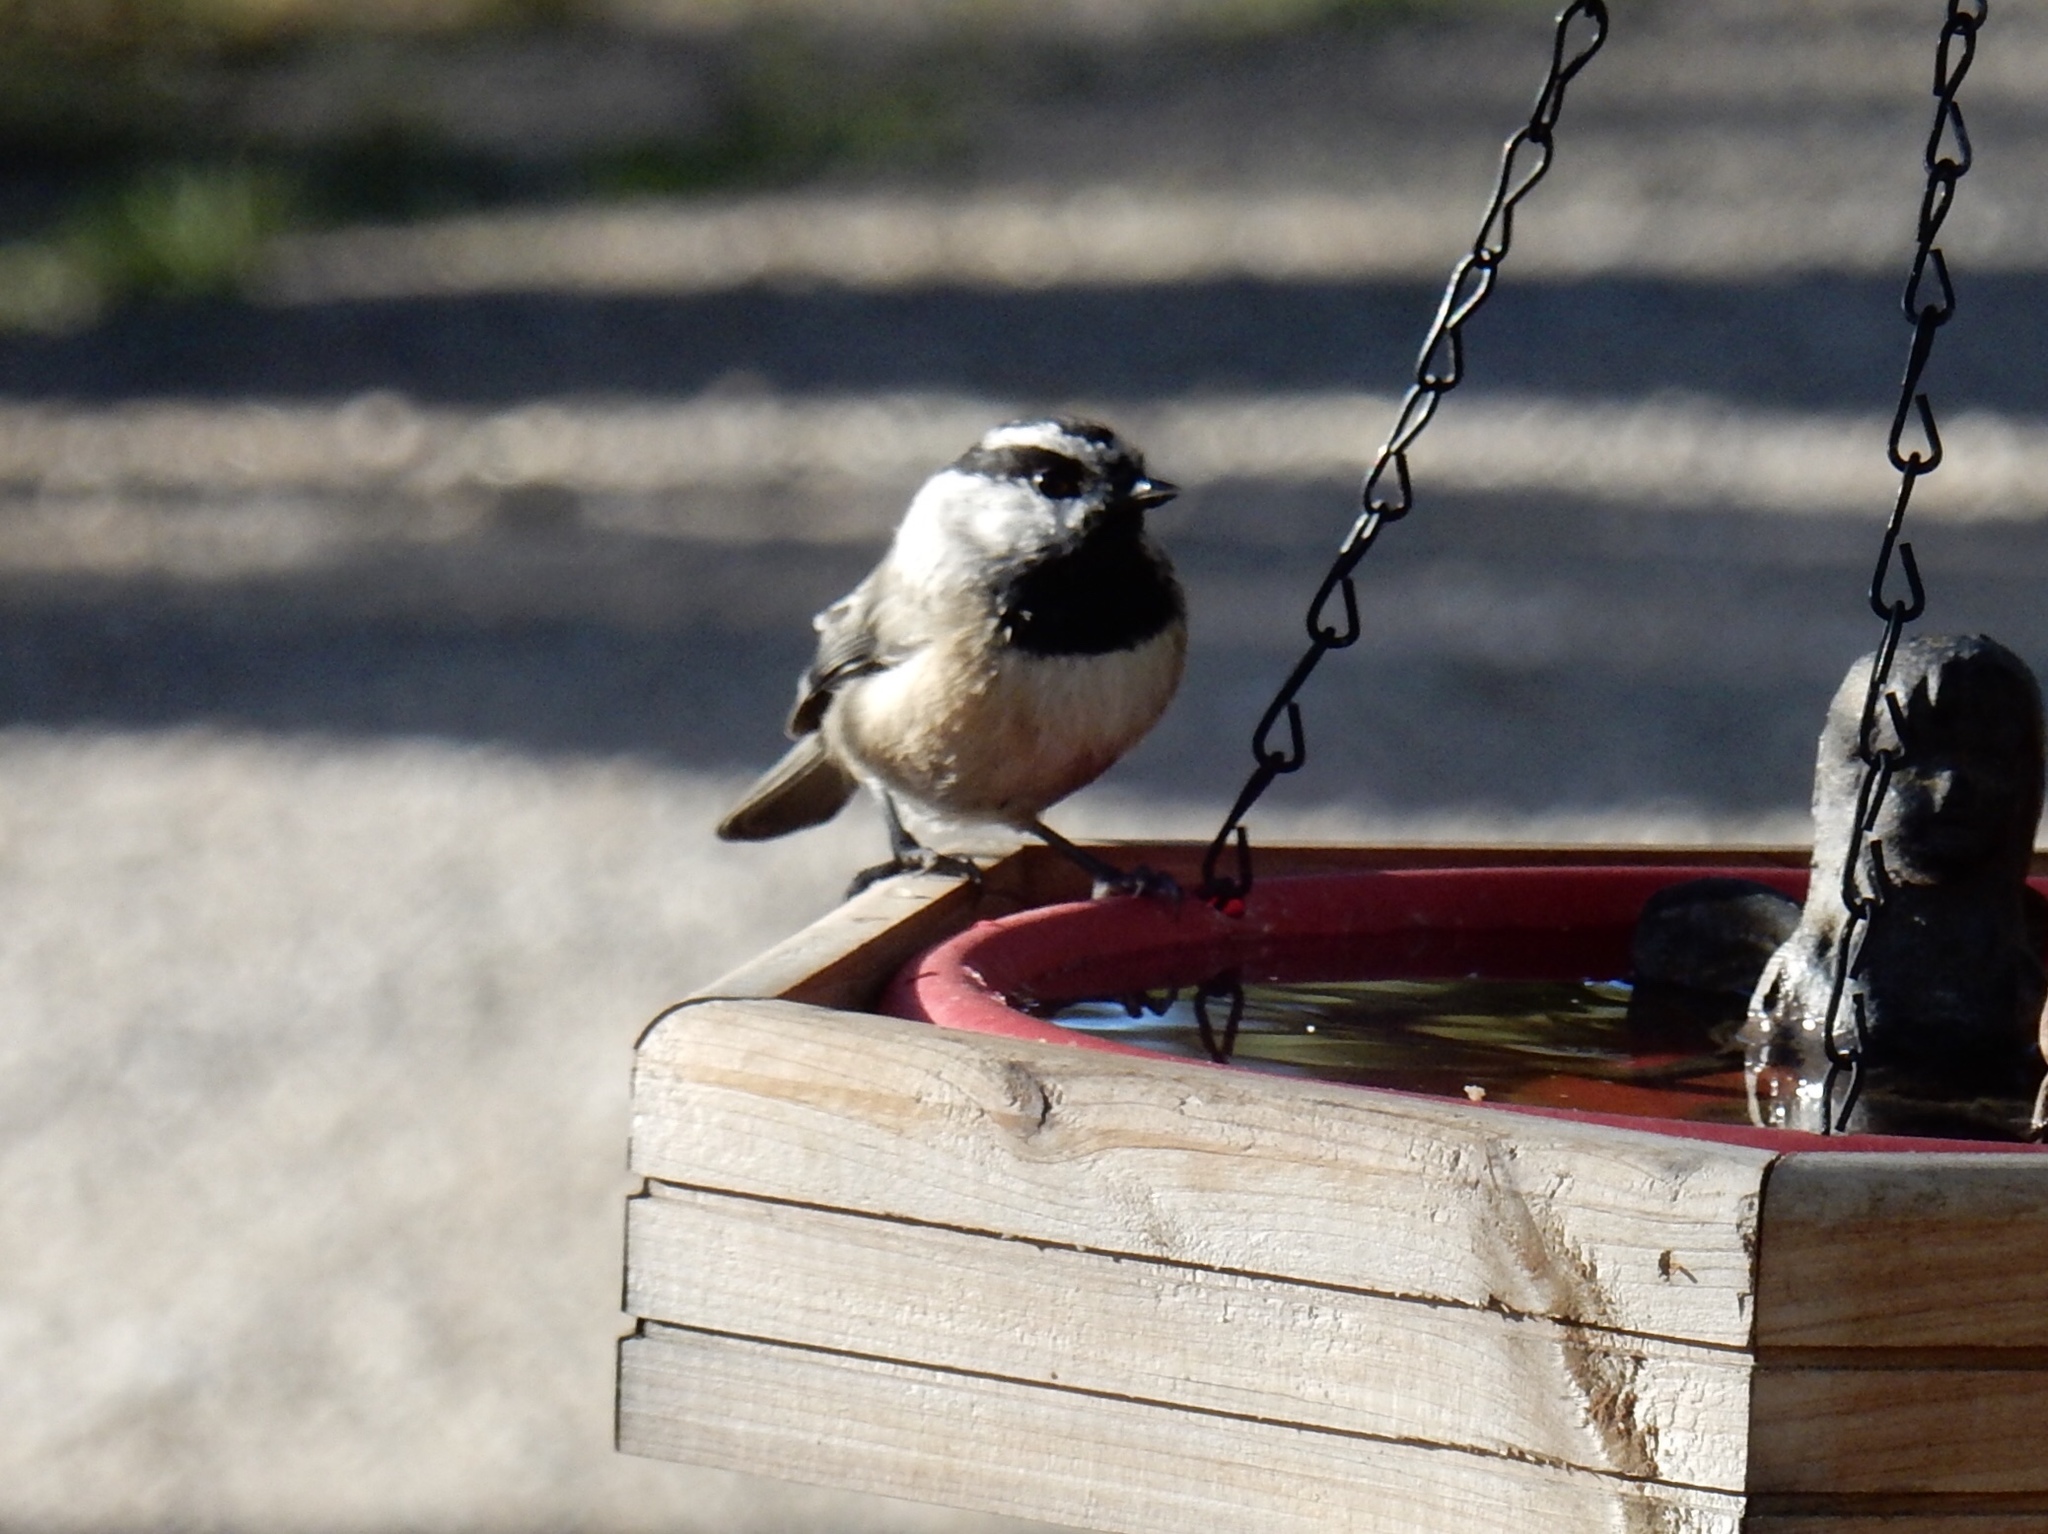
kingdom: Animalia
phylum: Chordata
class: Aves
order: Passeriformes
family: Paridae
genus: Poecile
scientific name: Poecile gambeli
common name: Mountain chickadee
